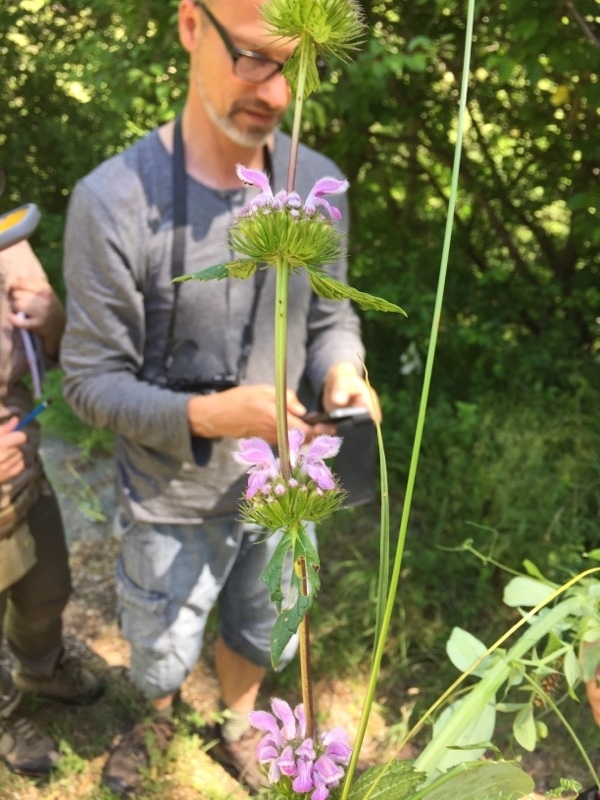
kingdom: Plantae
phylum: Tracheophyta
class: Magnoliopsida
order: Lamiales
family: Lamiaceae
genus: Phlomoides
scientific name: Phlomoides tuberosa
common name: Tuberous jerusalem sage
